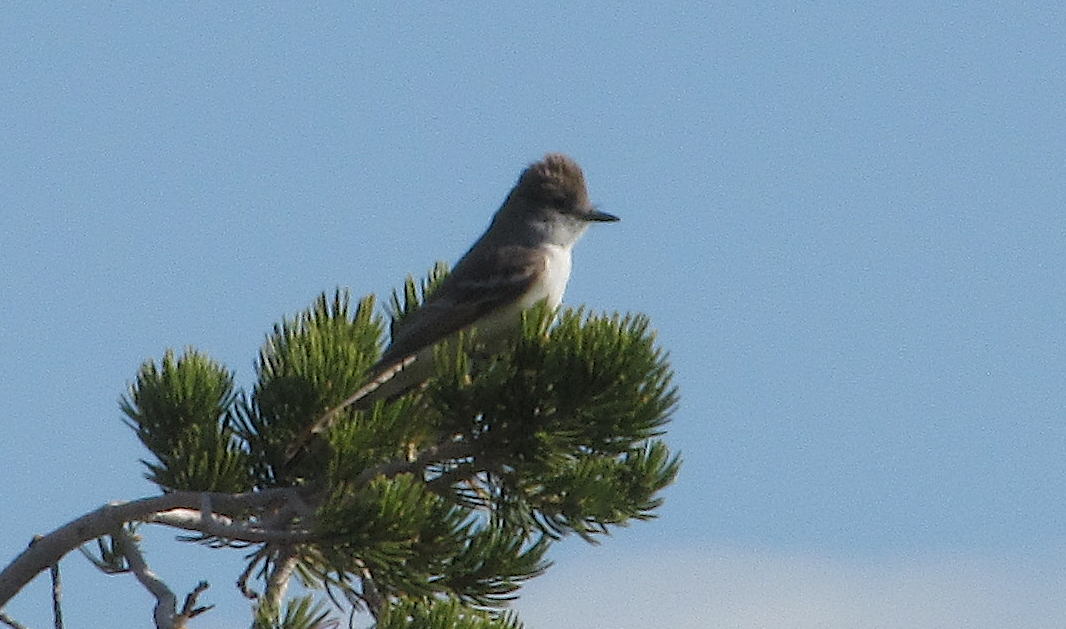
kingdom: Animalia
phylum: Chordata
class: Aves
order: Passeriformes
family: Tyrannidae
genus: Myiarchus
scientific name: Myiarchus cinerascens
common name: Ash-throated flycatcher
